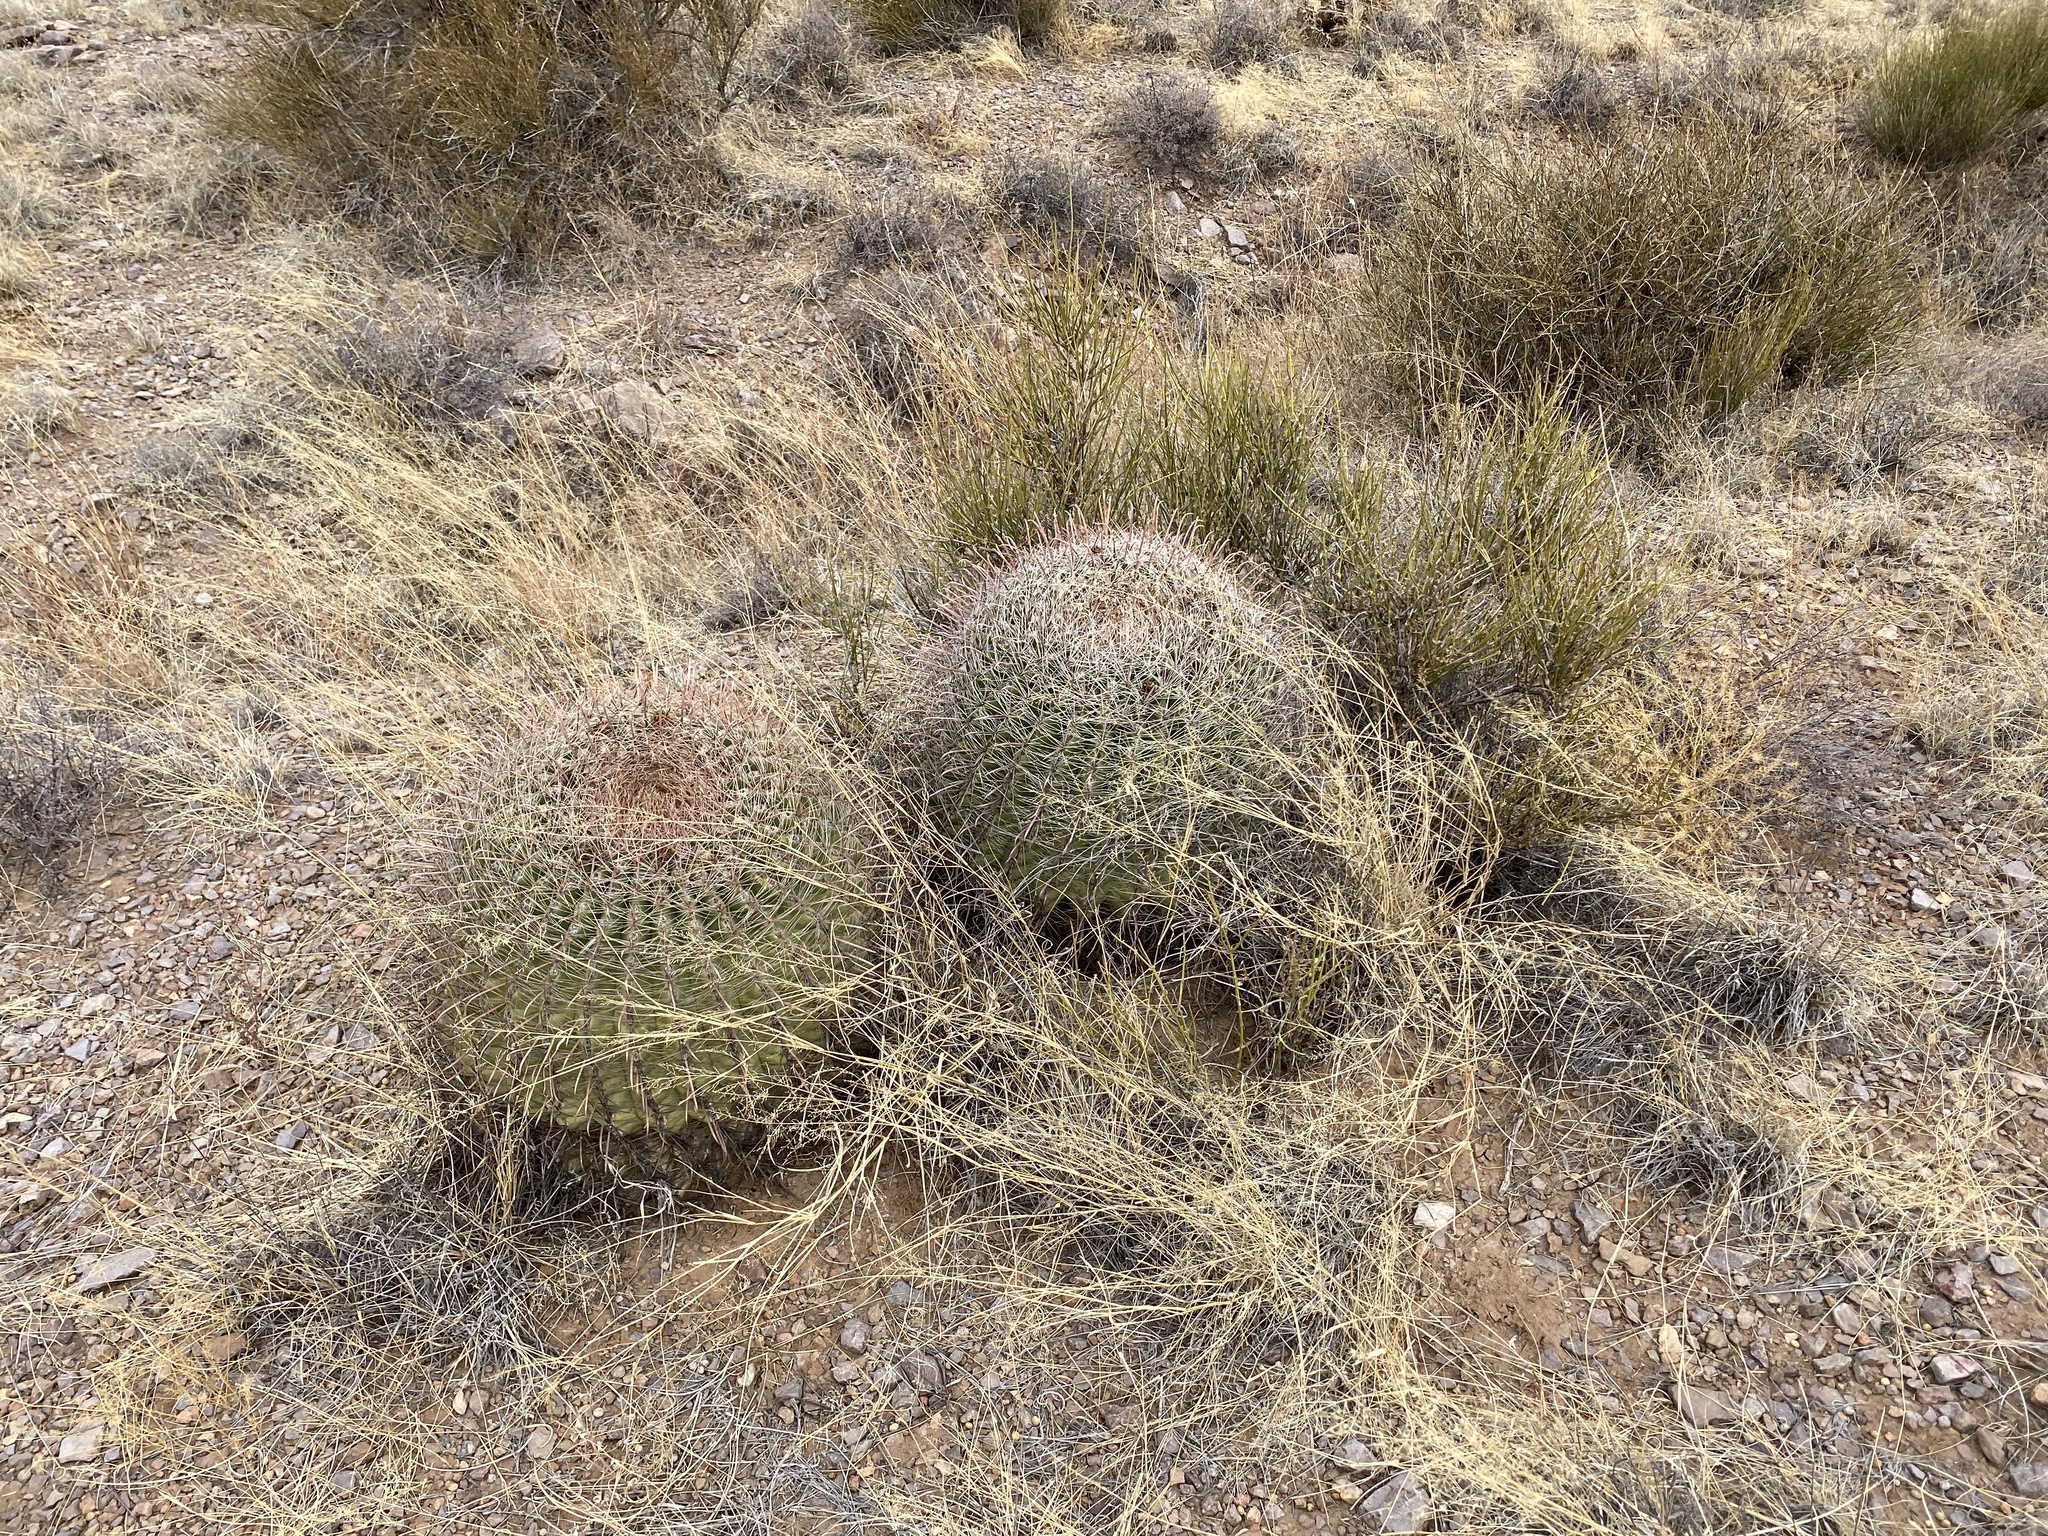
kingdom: Plantae
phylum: Tracheophyta
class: Magnoliopsida
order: Caryophyllales
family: Cactaceae
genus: Ferocactus
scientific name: Ferocactus wislizeni
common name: Candy barrel cactus
